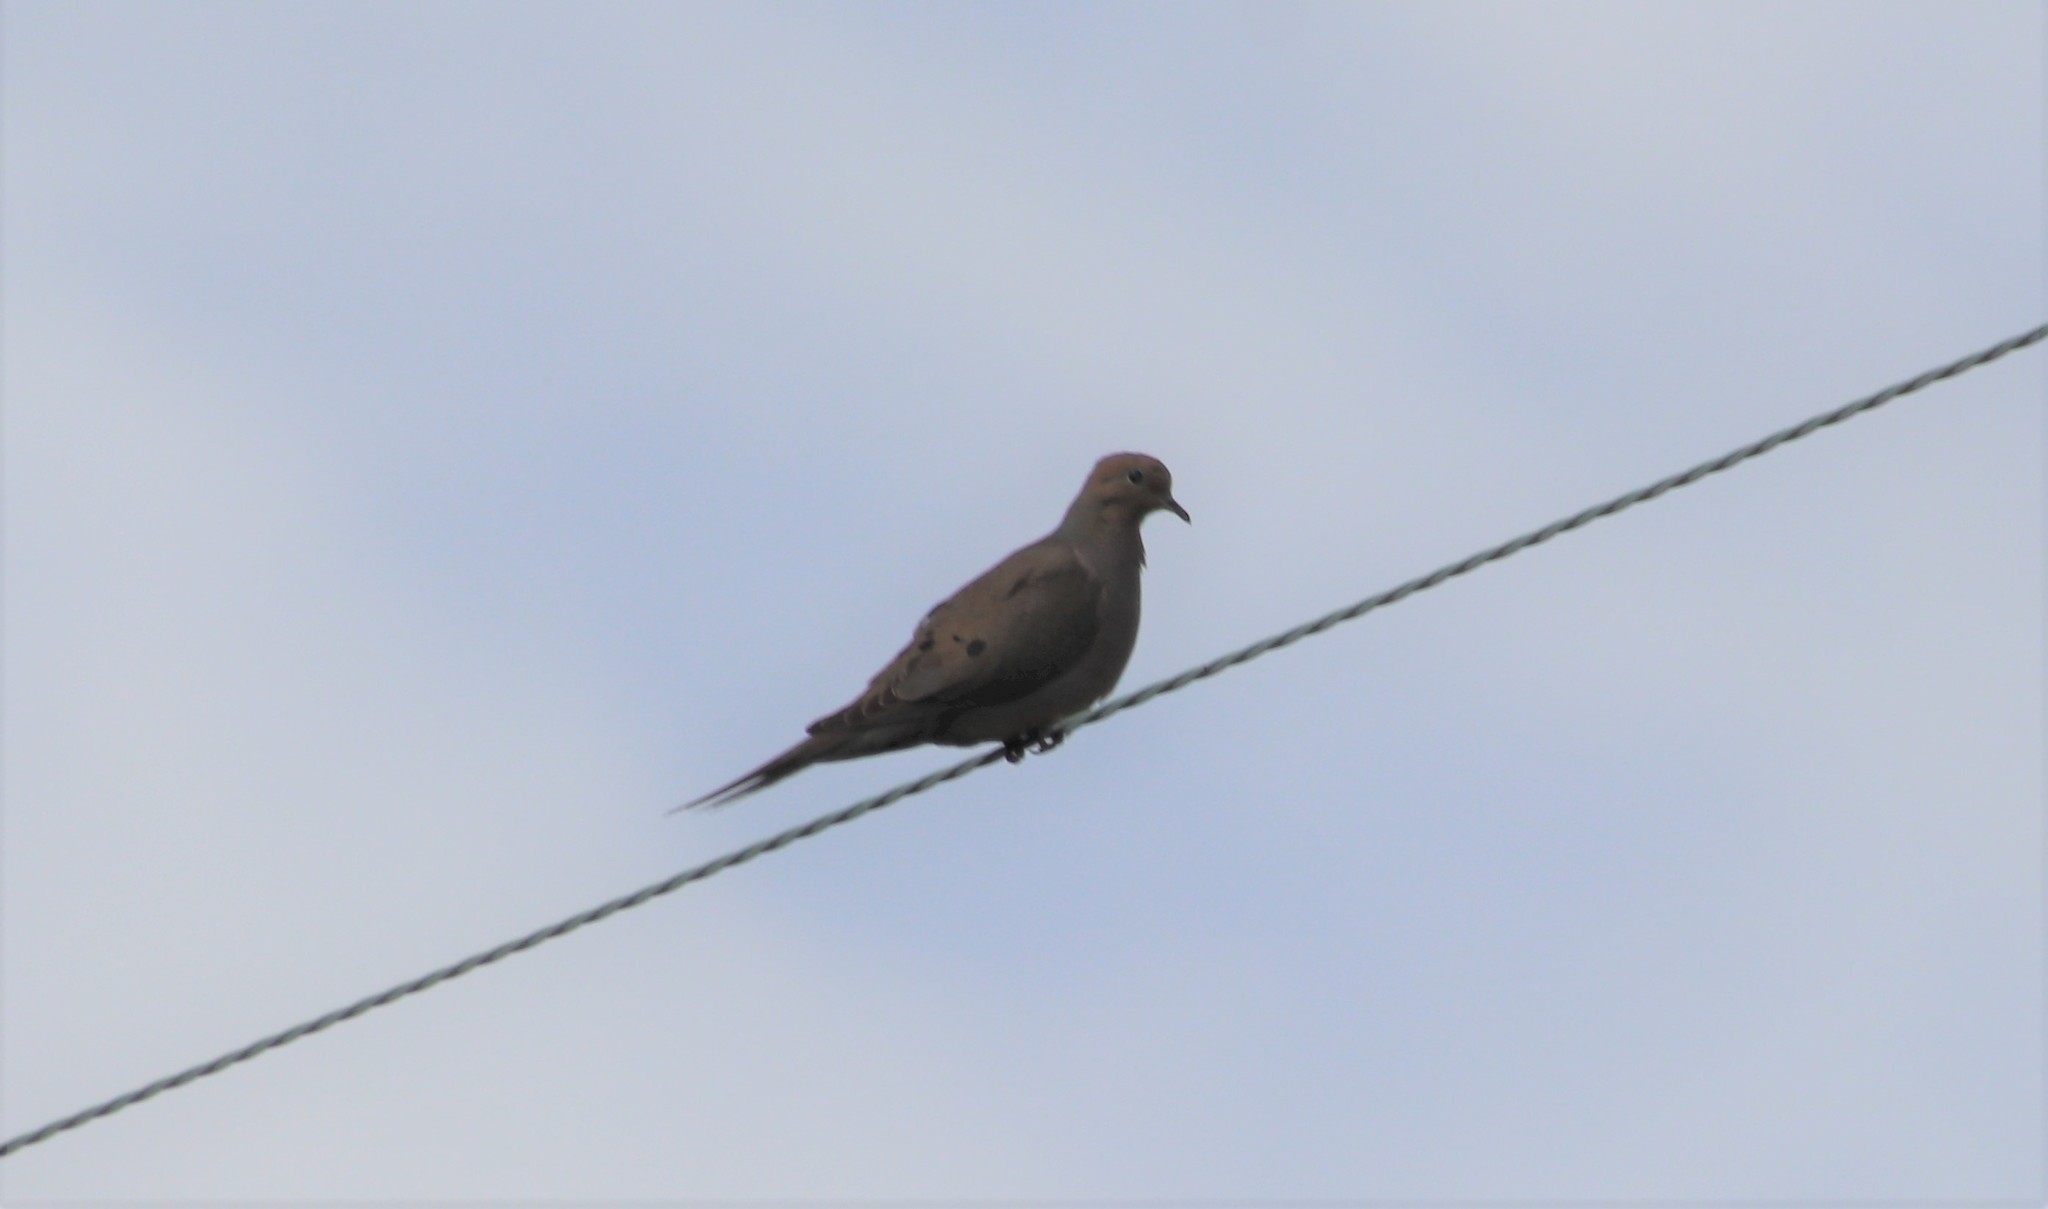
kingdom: Animalia
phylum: Chordata
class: Aves
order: Columbiformes
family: Columbidae
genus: Zenaida
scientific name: Zenaida macroura
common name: Mourning dove
